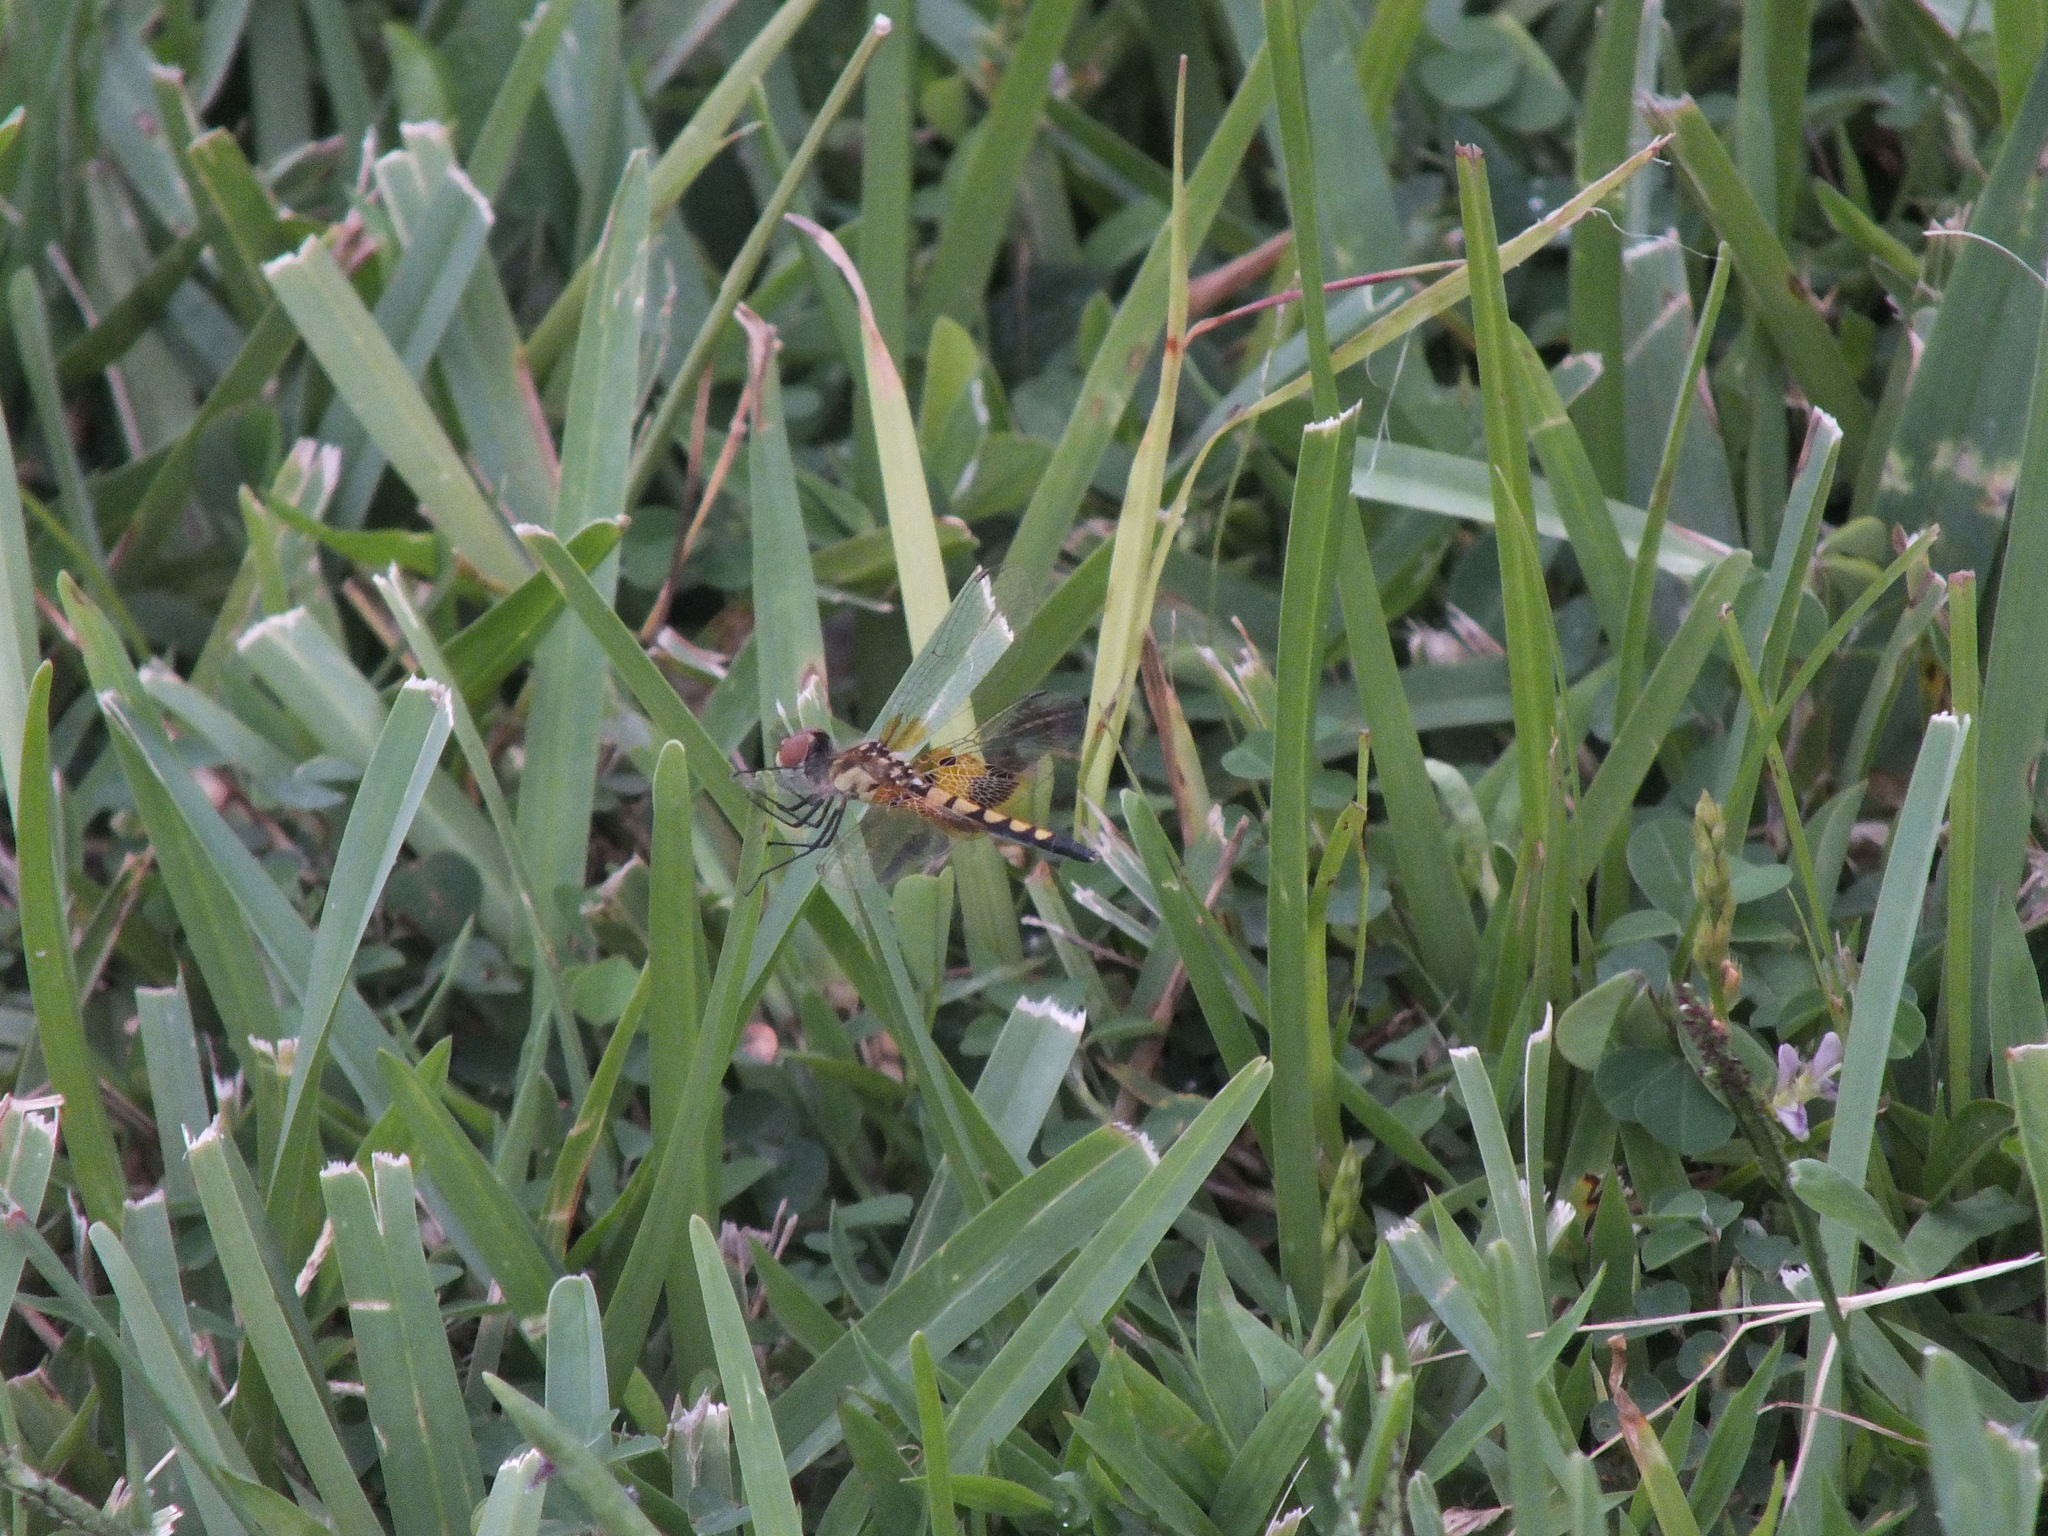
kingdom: Animalia
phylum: Arthropoda
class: Insecta
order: Odonata
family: Libellulidae
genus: Celithemis
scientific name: Celithemis amanda
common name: Amanda's pennant
